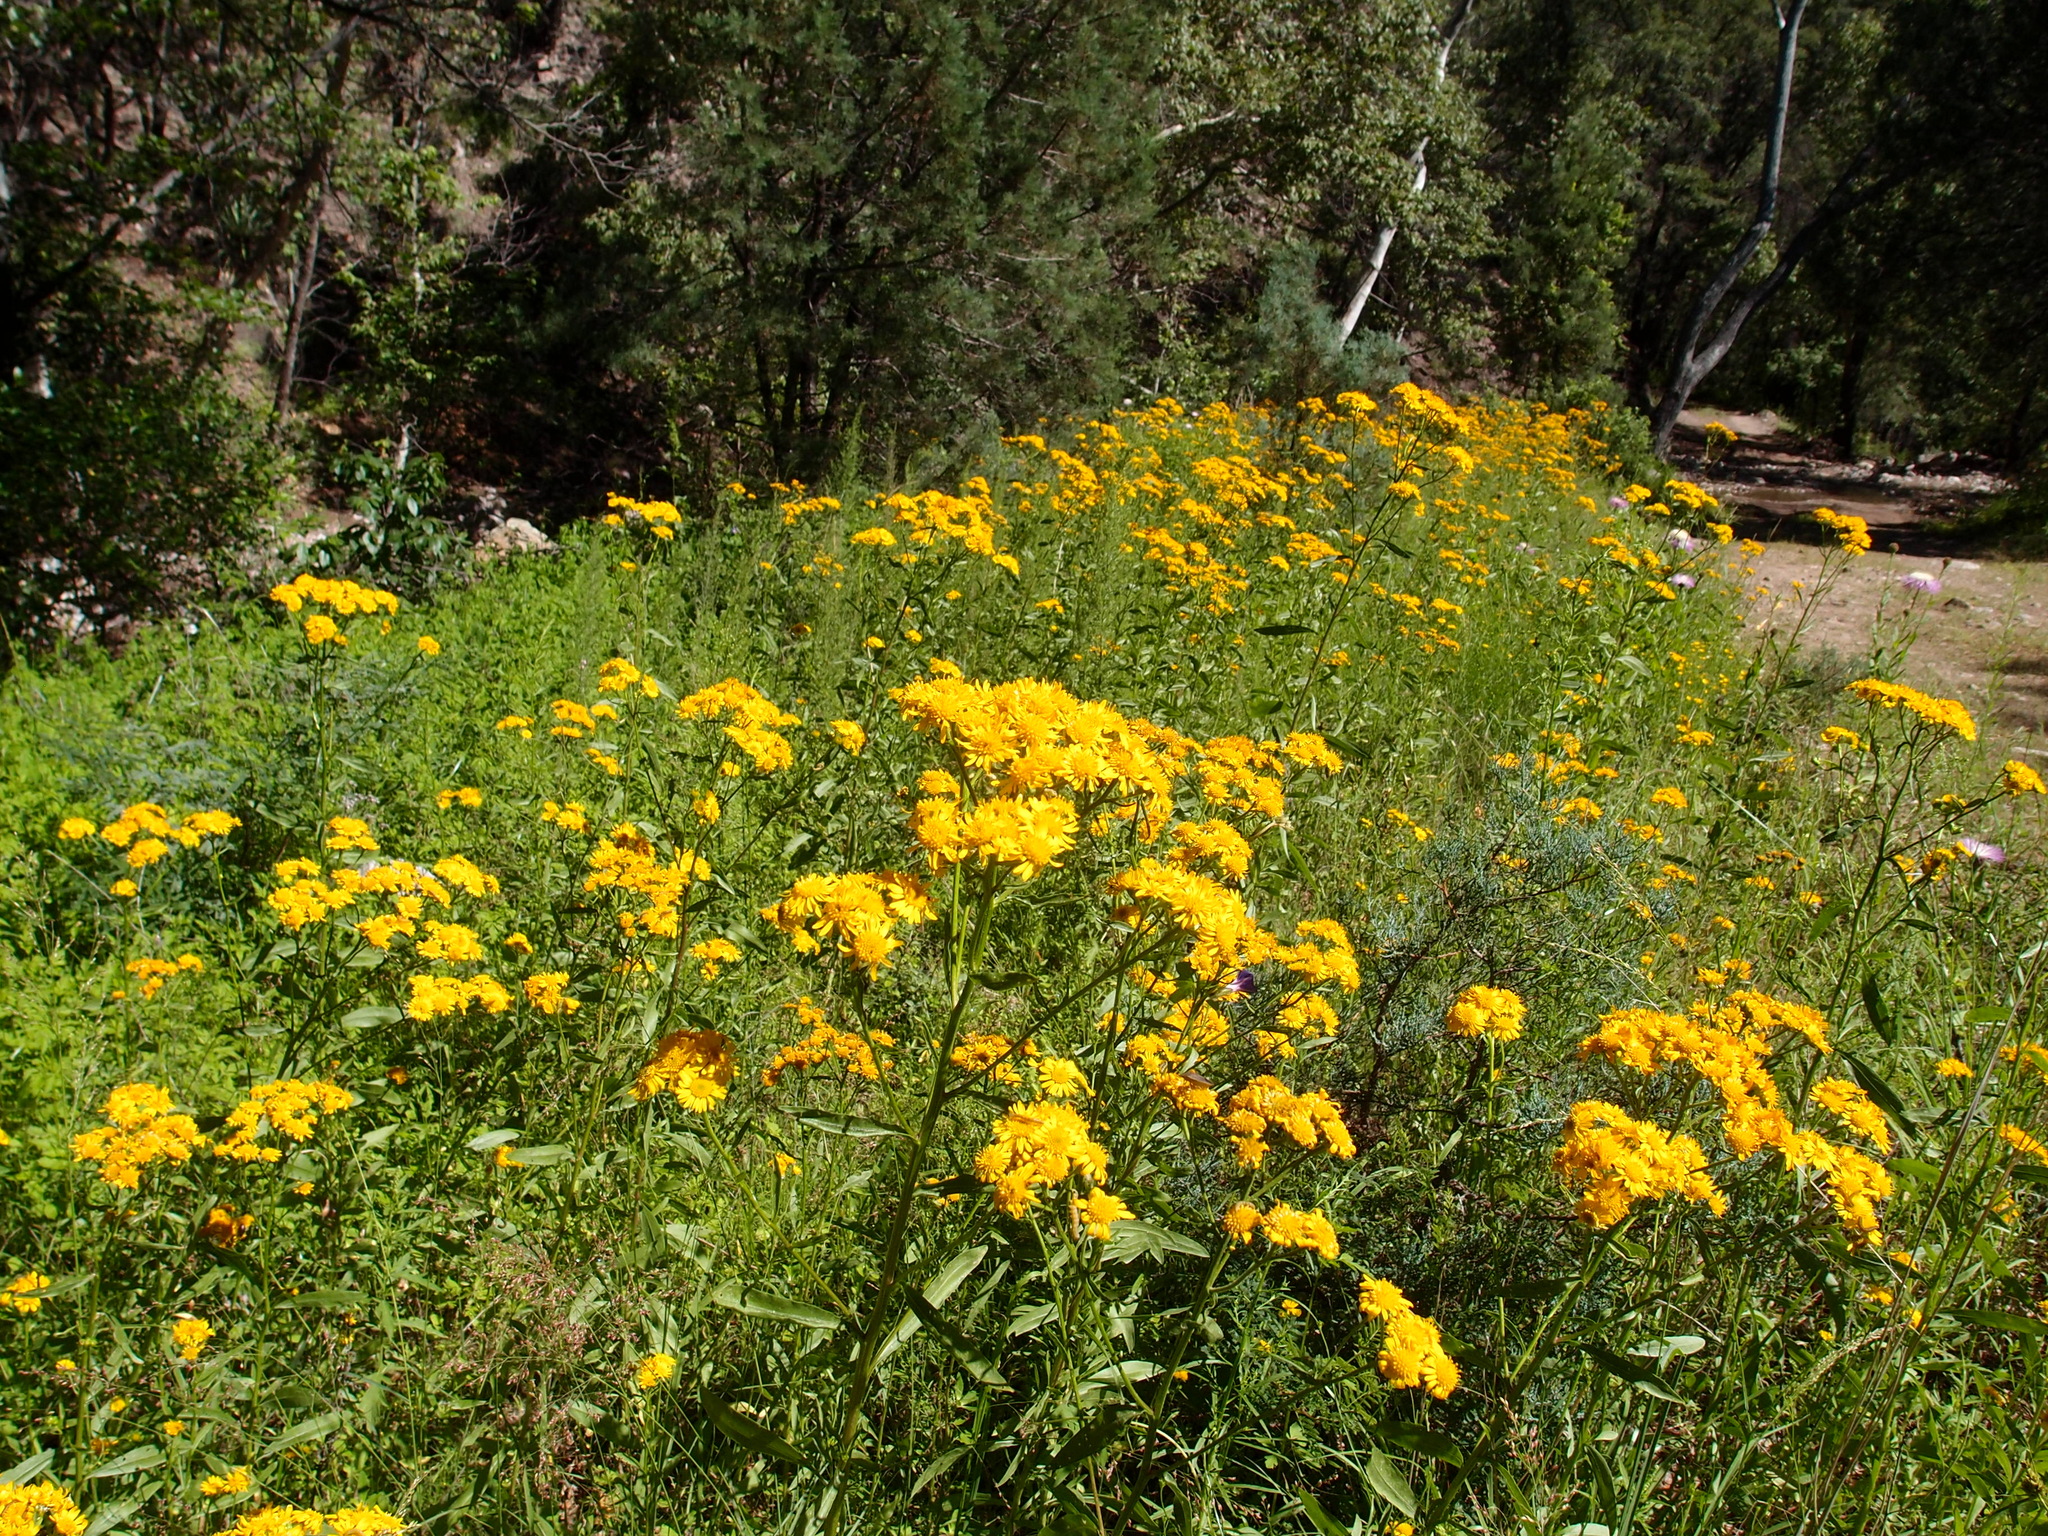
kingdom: Plantae
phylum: Tracheophyta
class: Magnoliopsida
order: Asterales
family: Asteraceae
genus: Xanthocephalum
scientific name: Xanthocephalum gymnospermoides
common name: San pedro matchweed
